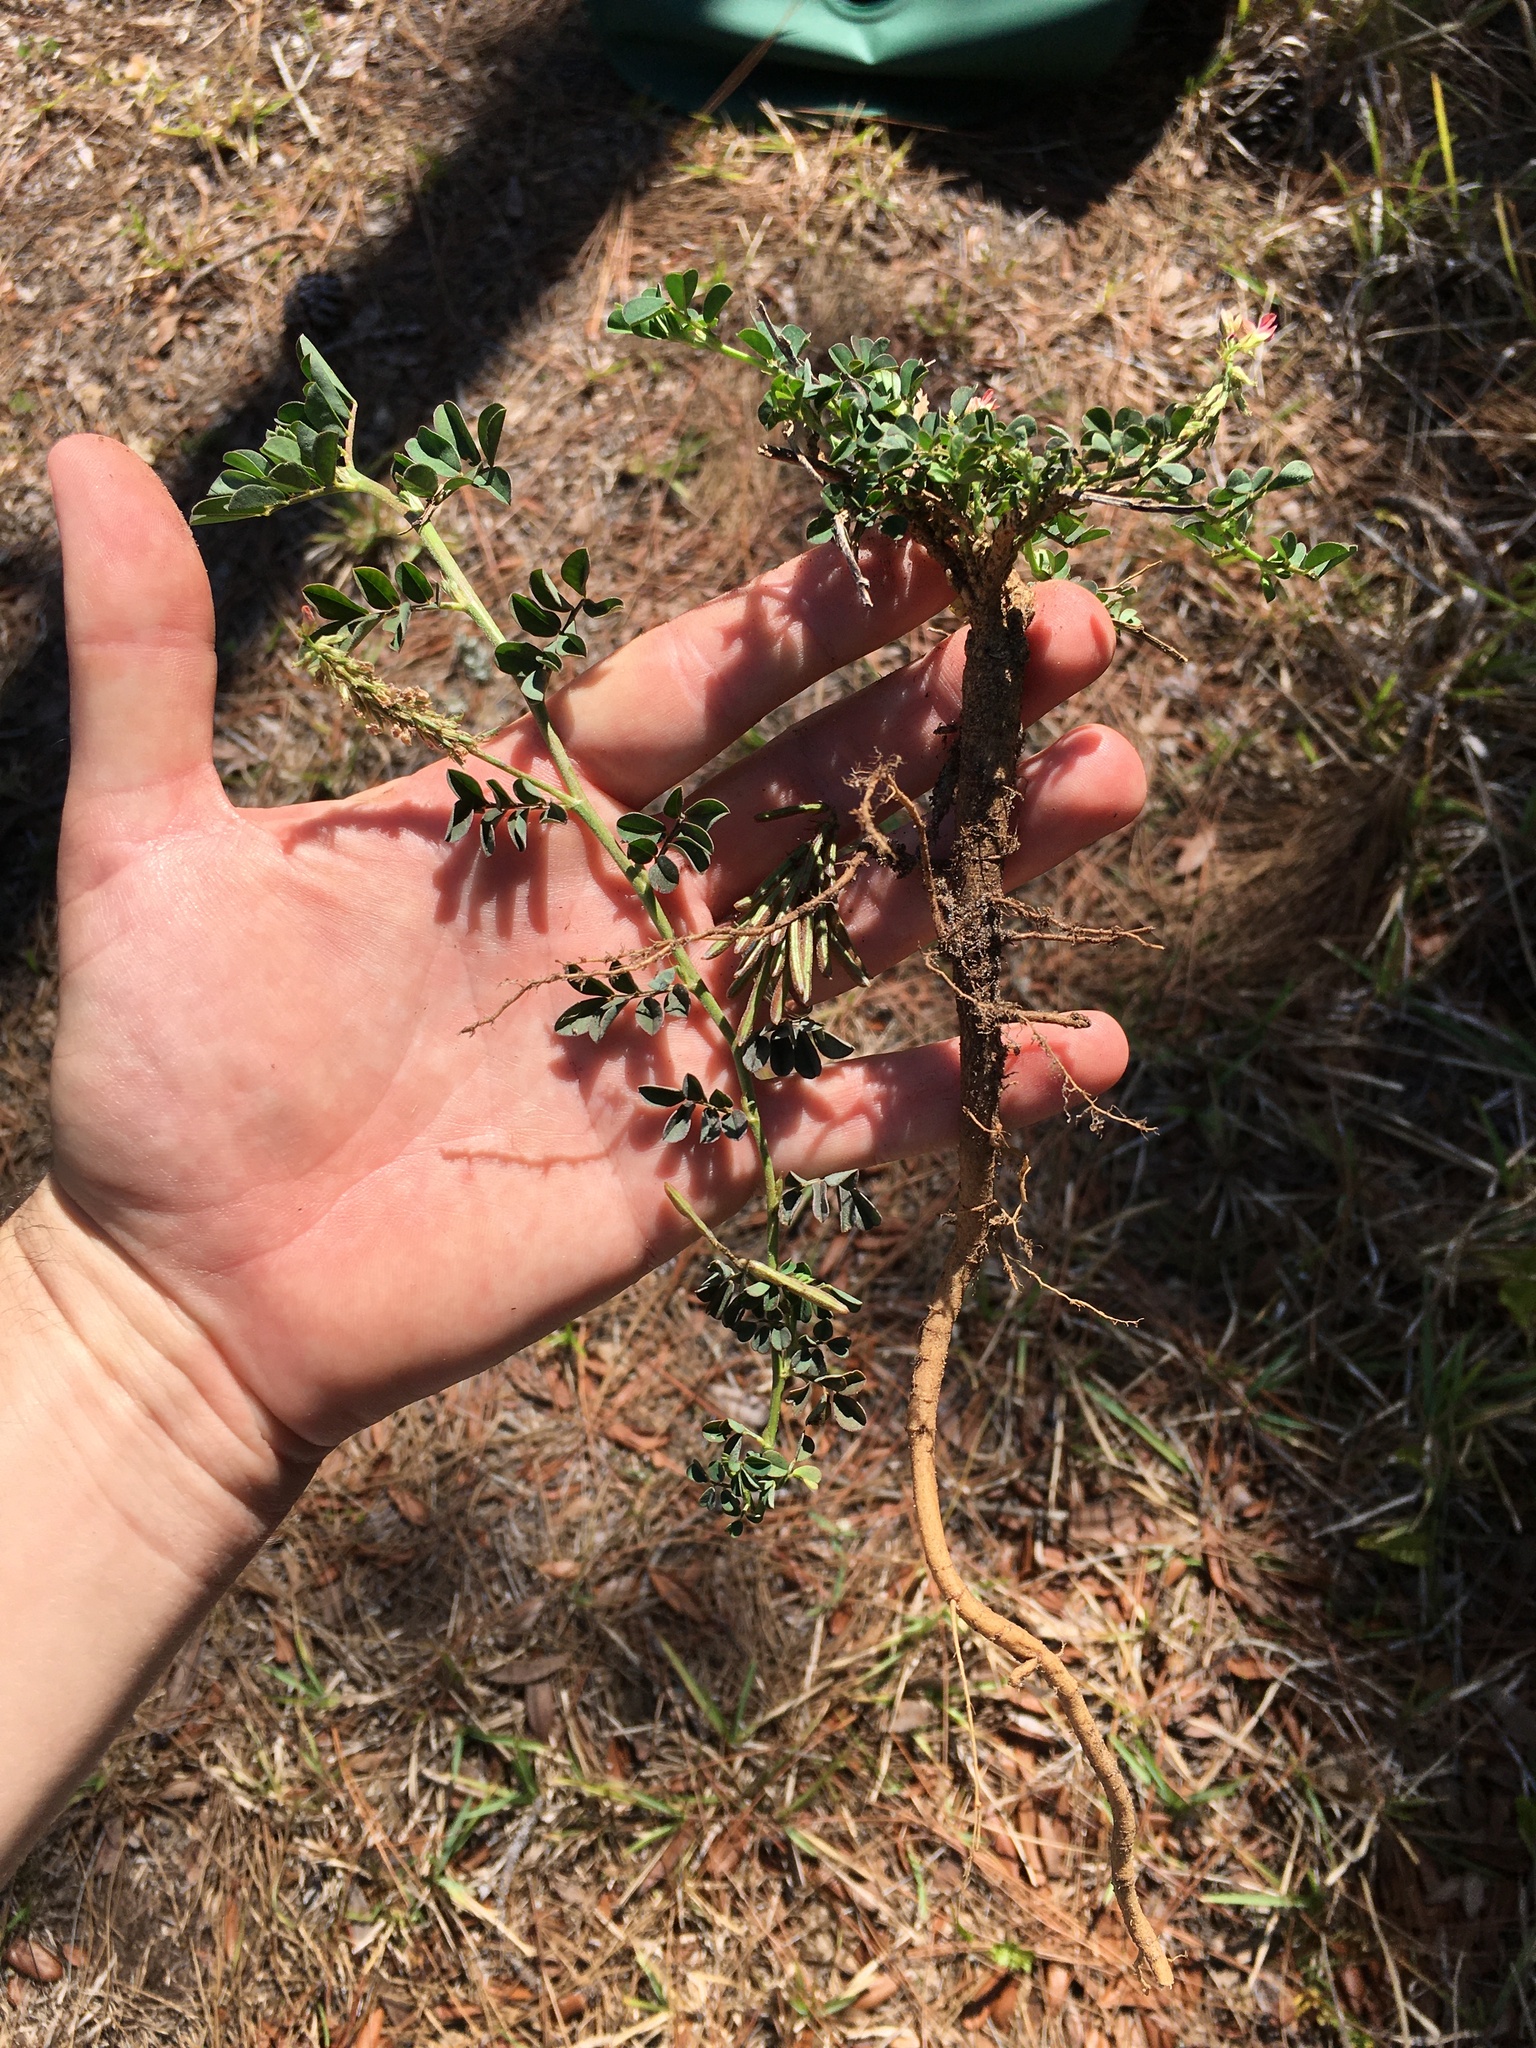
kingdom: Plantae
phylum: Tracheophyta
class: Magnoliopsida
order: Fabales
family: Fabaceae
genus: Indigofera
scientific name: Indigofera spicata
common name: Creeping indigo
